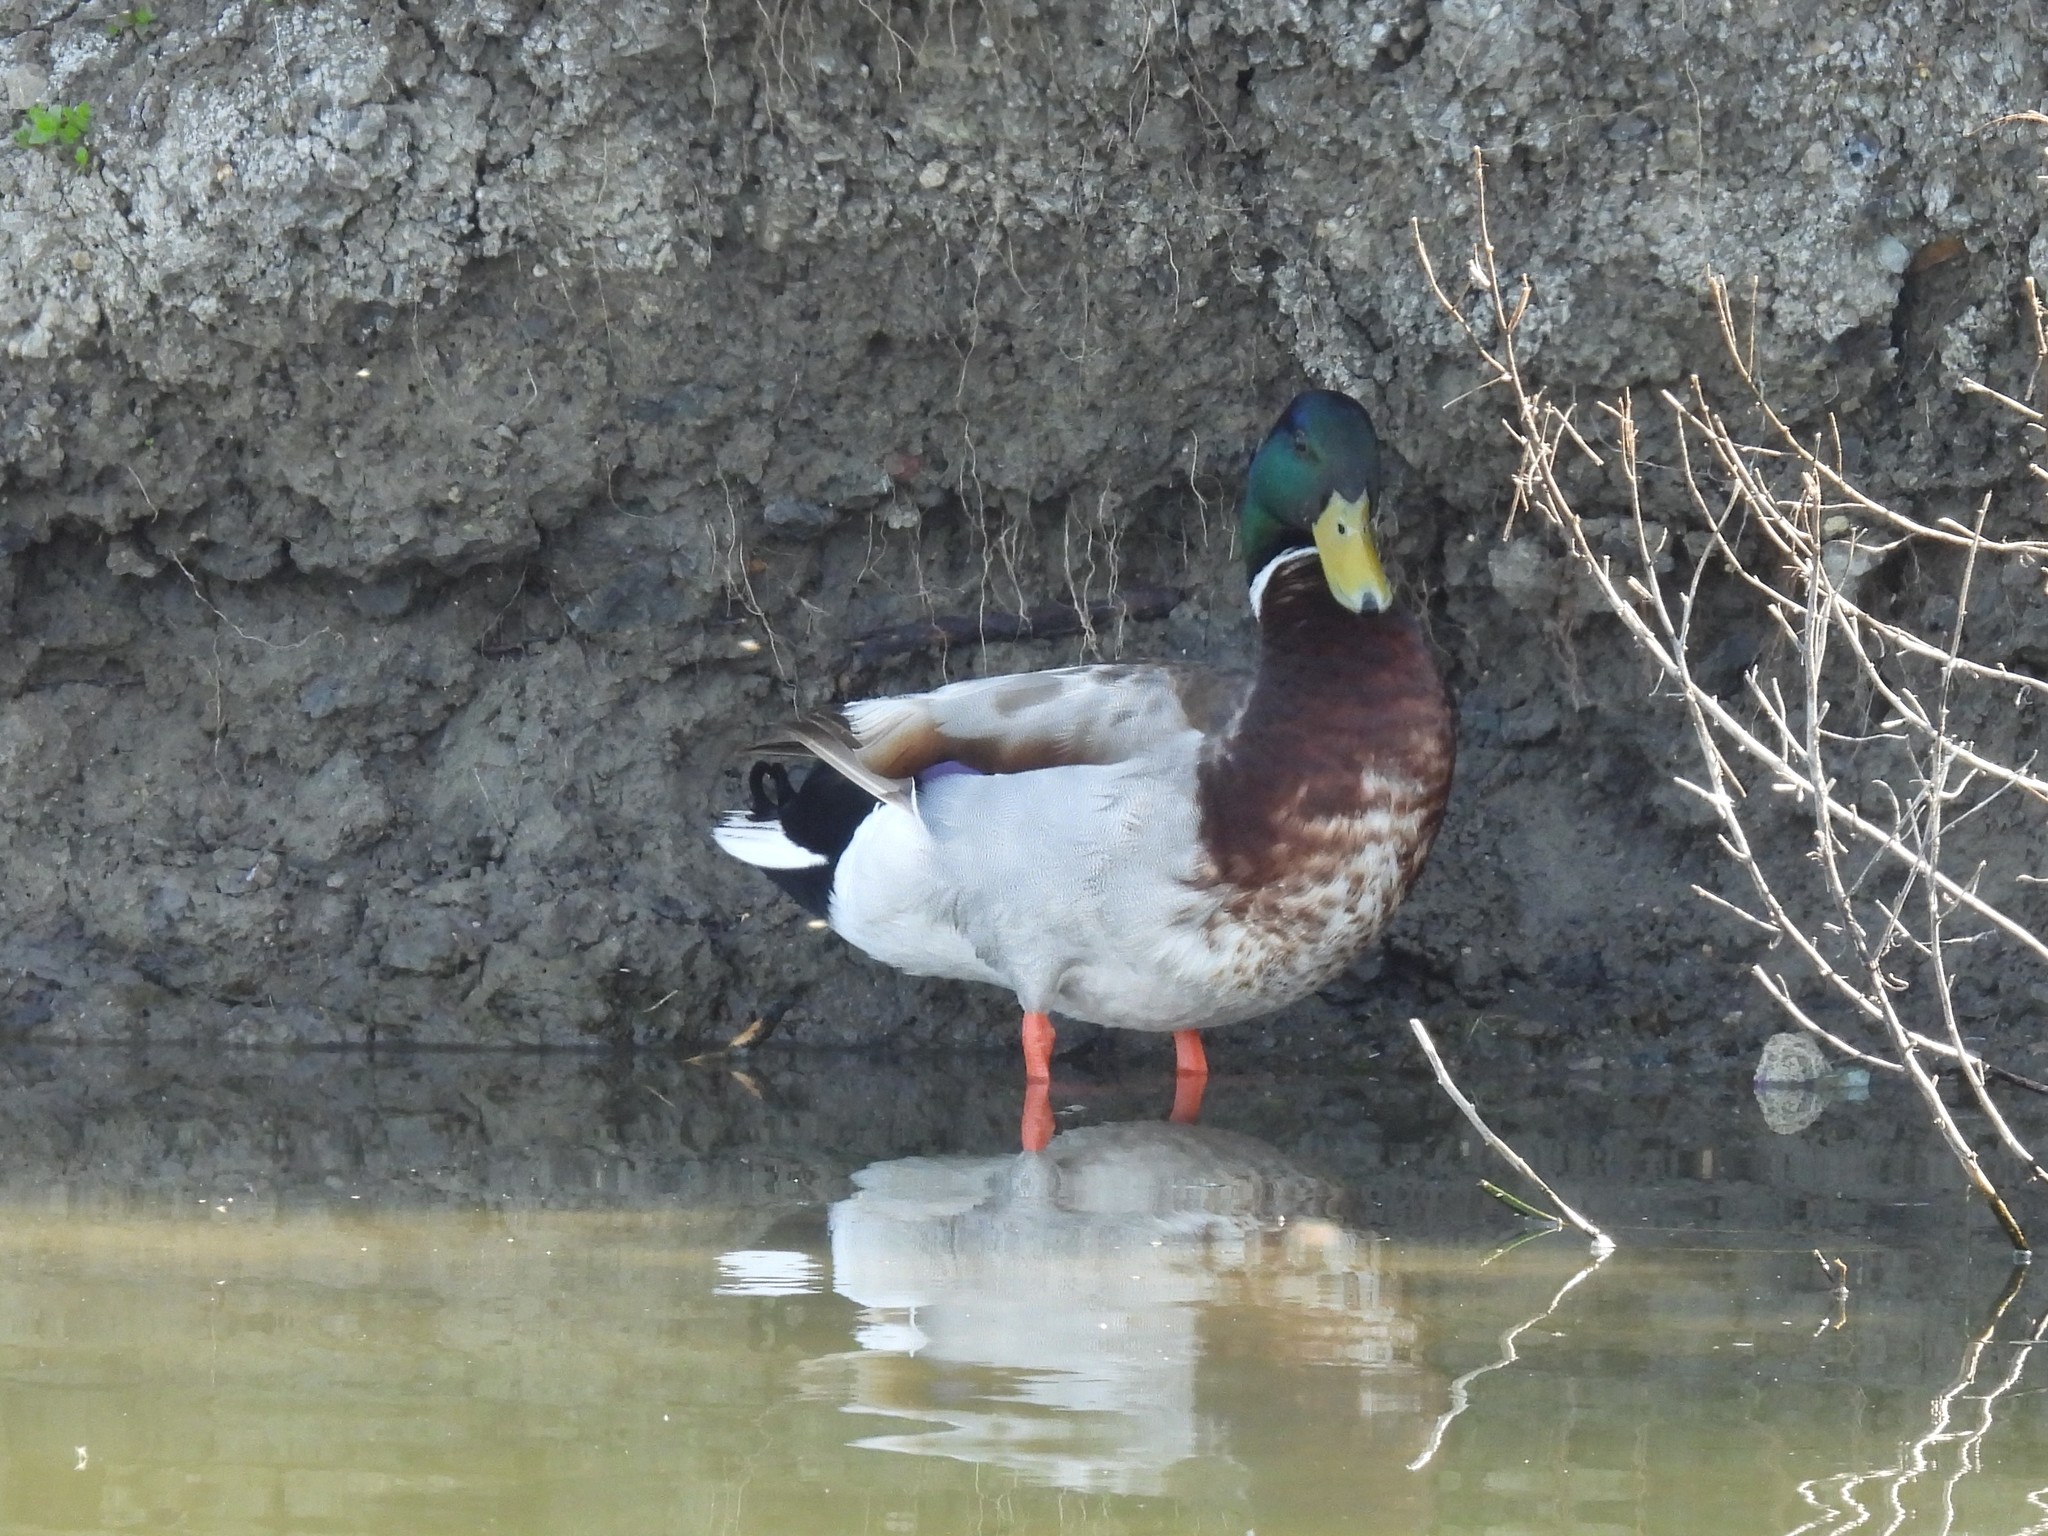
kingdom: Animalia
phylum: Chordata
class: Aves
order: Anseriformes
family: Anatidae
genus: Anas
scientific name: Anas platyrhynchos
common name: Mallard
